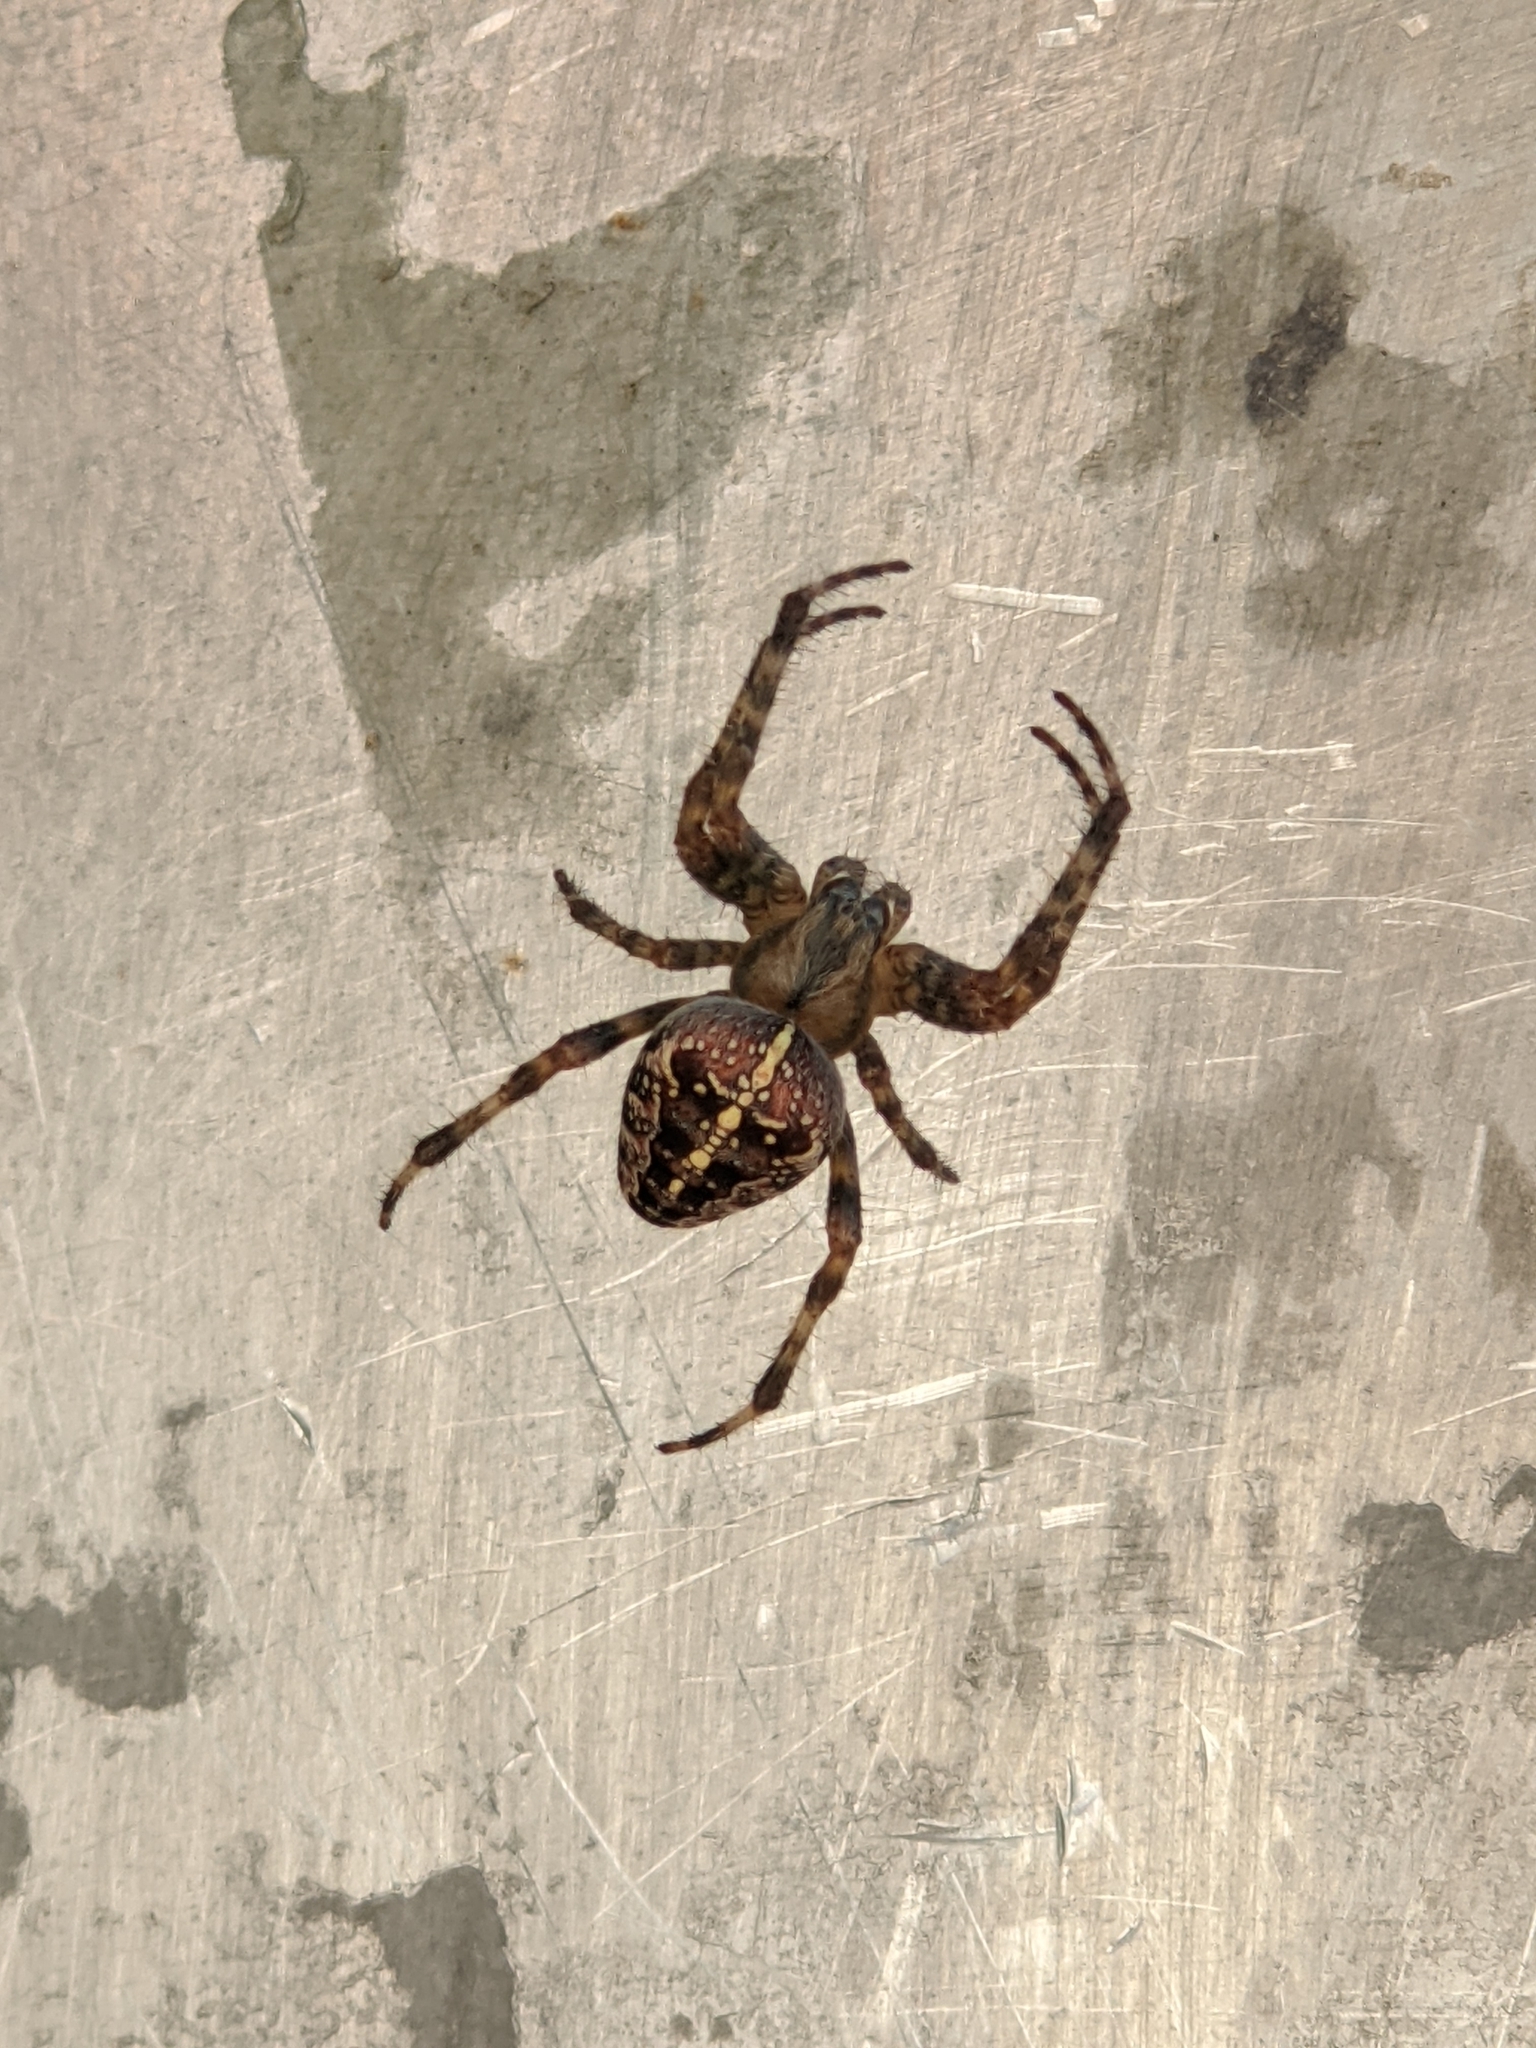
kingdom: Animalia
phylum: Arthropoda
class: Arachnida
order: Araneae
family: Araneidae
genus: Araneus
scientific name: Araneus diadematus
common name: Cross orbweaver
